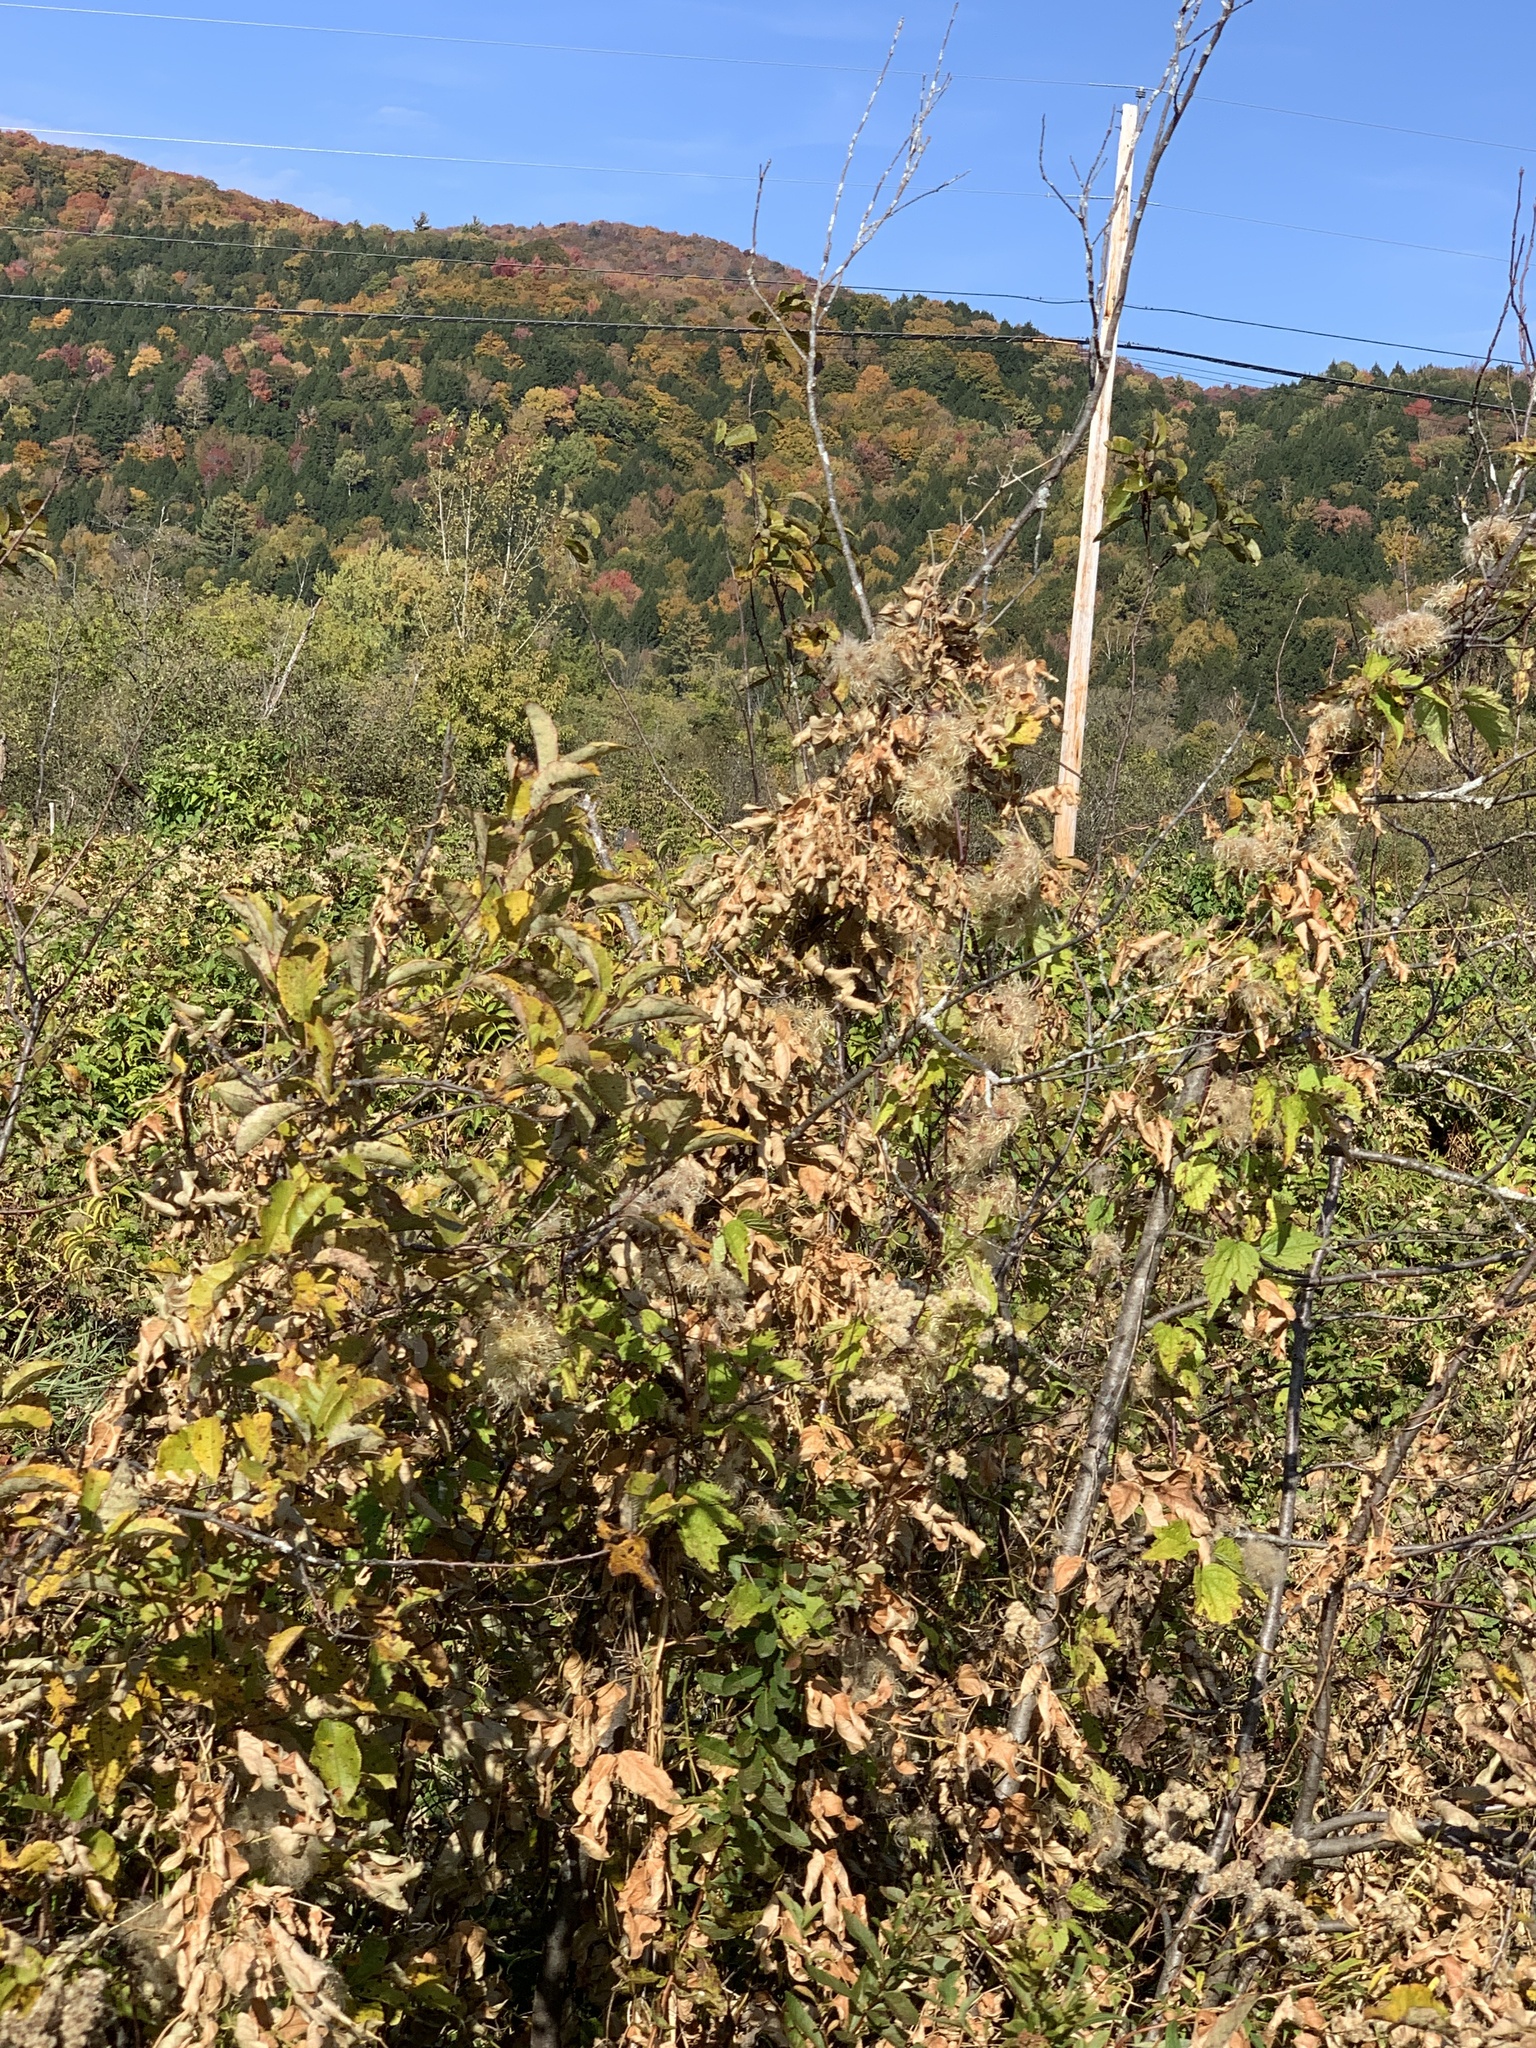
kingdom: Plantae
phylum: Tracheophyta
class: Magnoliopsida
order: Ranunculales
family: Ranunculaceae
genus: Clematis
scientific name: Clematis virginiana
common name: Virgin's-bower
